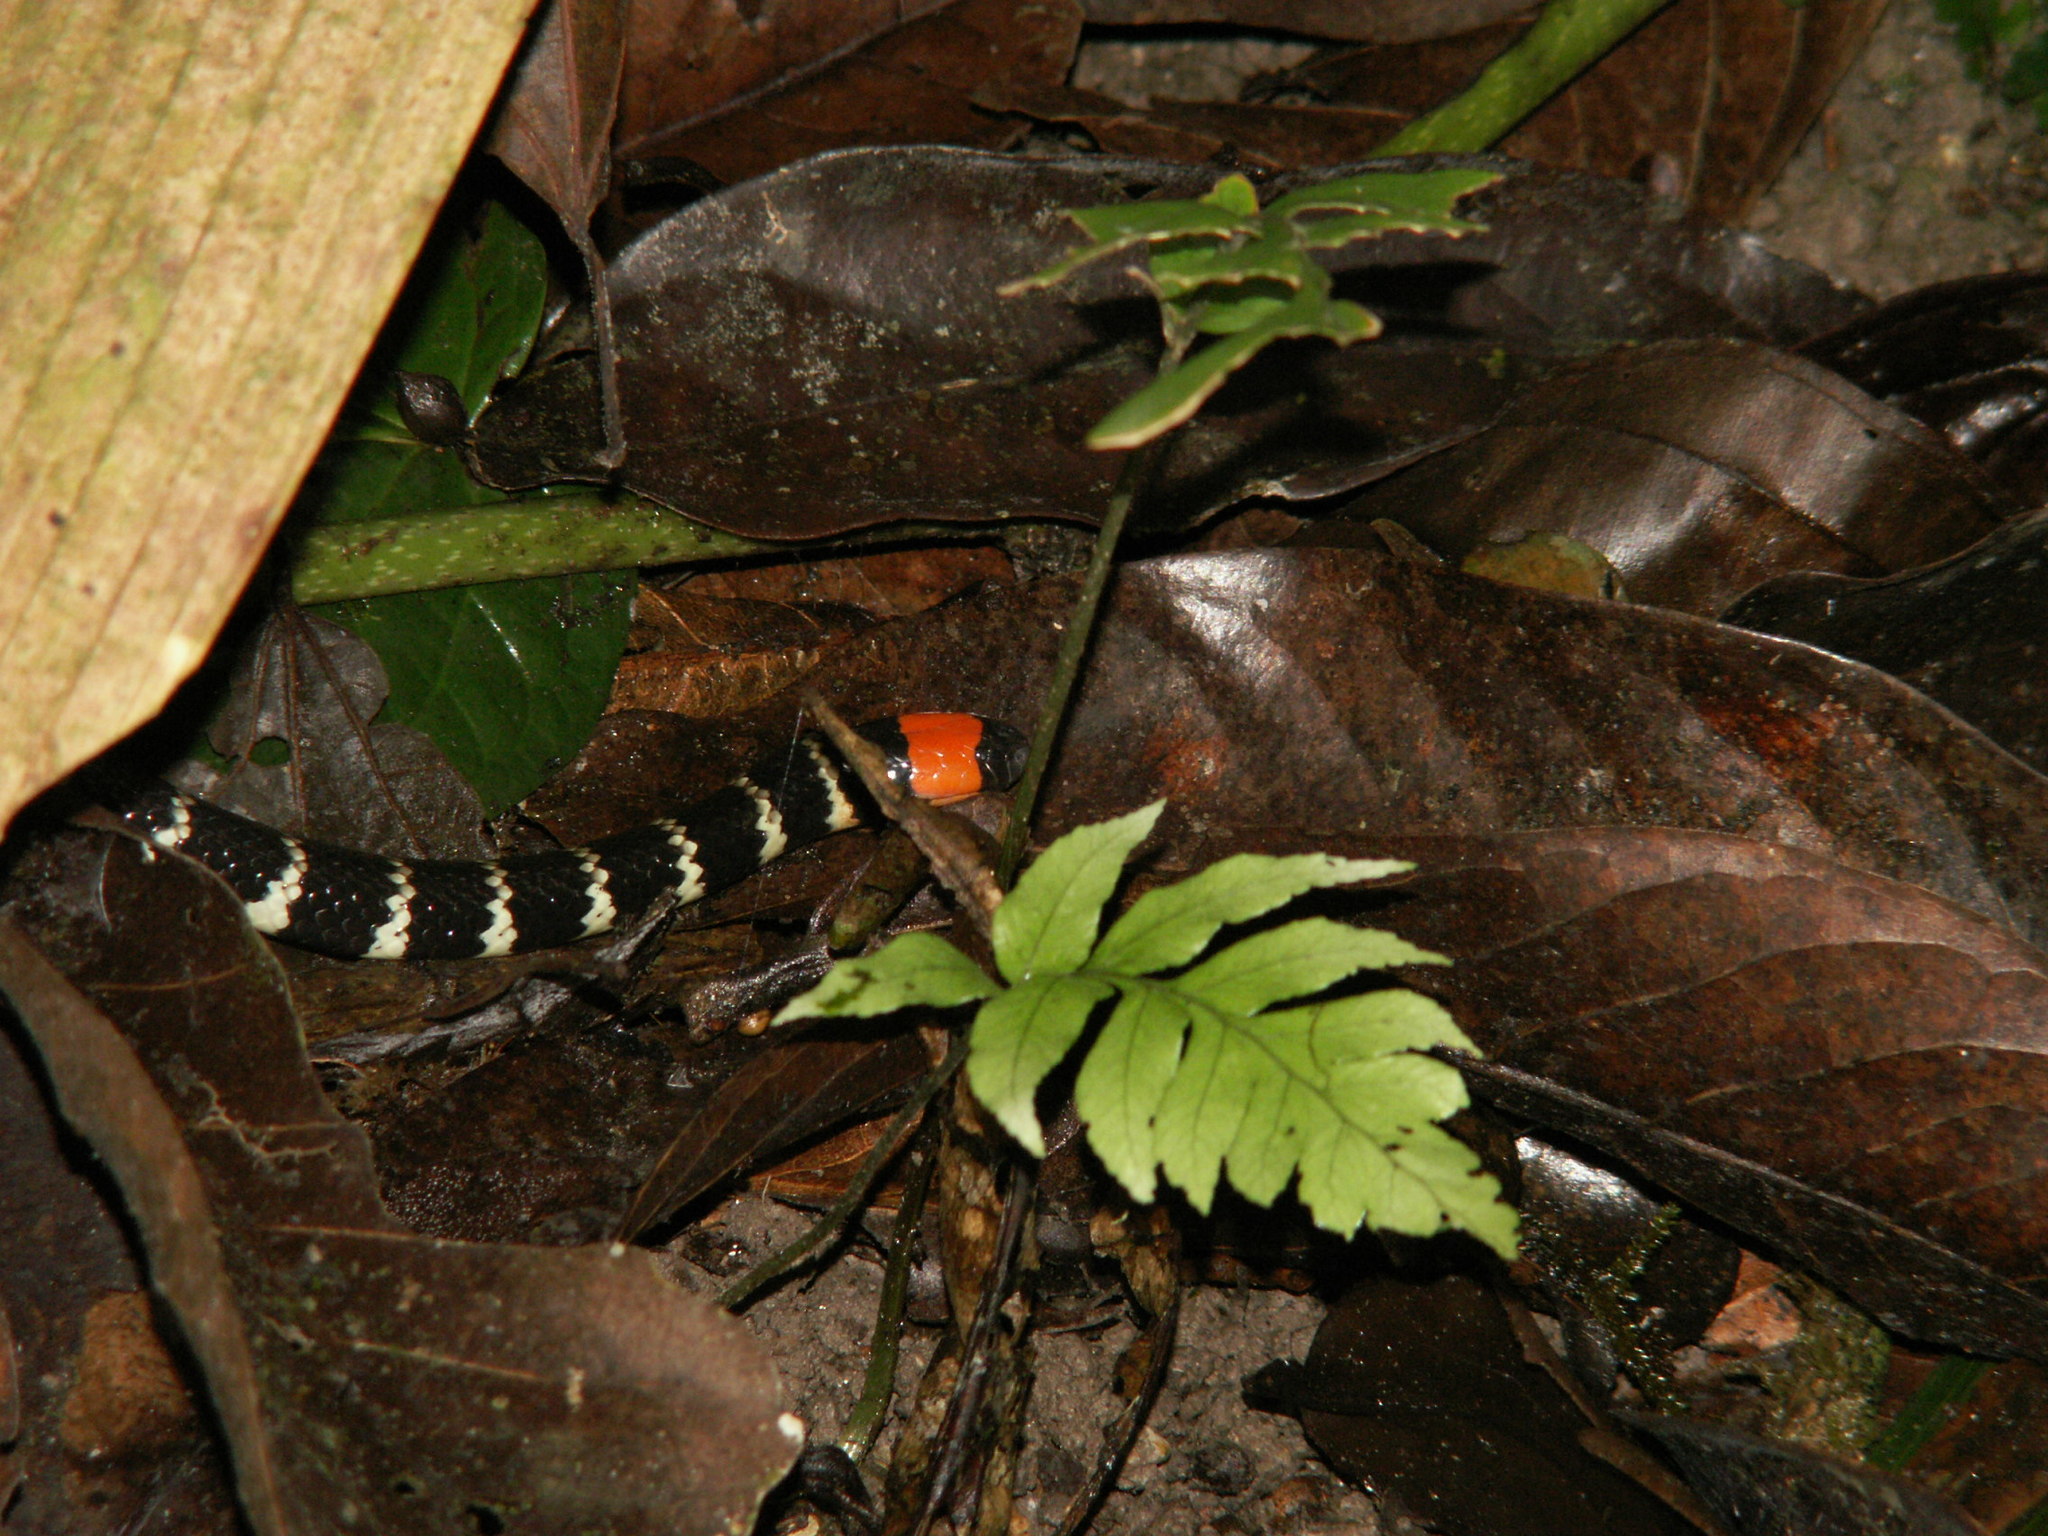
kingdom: Animalia
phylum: Chordata
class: Squamata
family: Elapidae
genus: Micrurus
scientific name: Micrurus mipartitus
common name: Redtail coral snake
